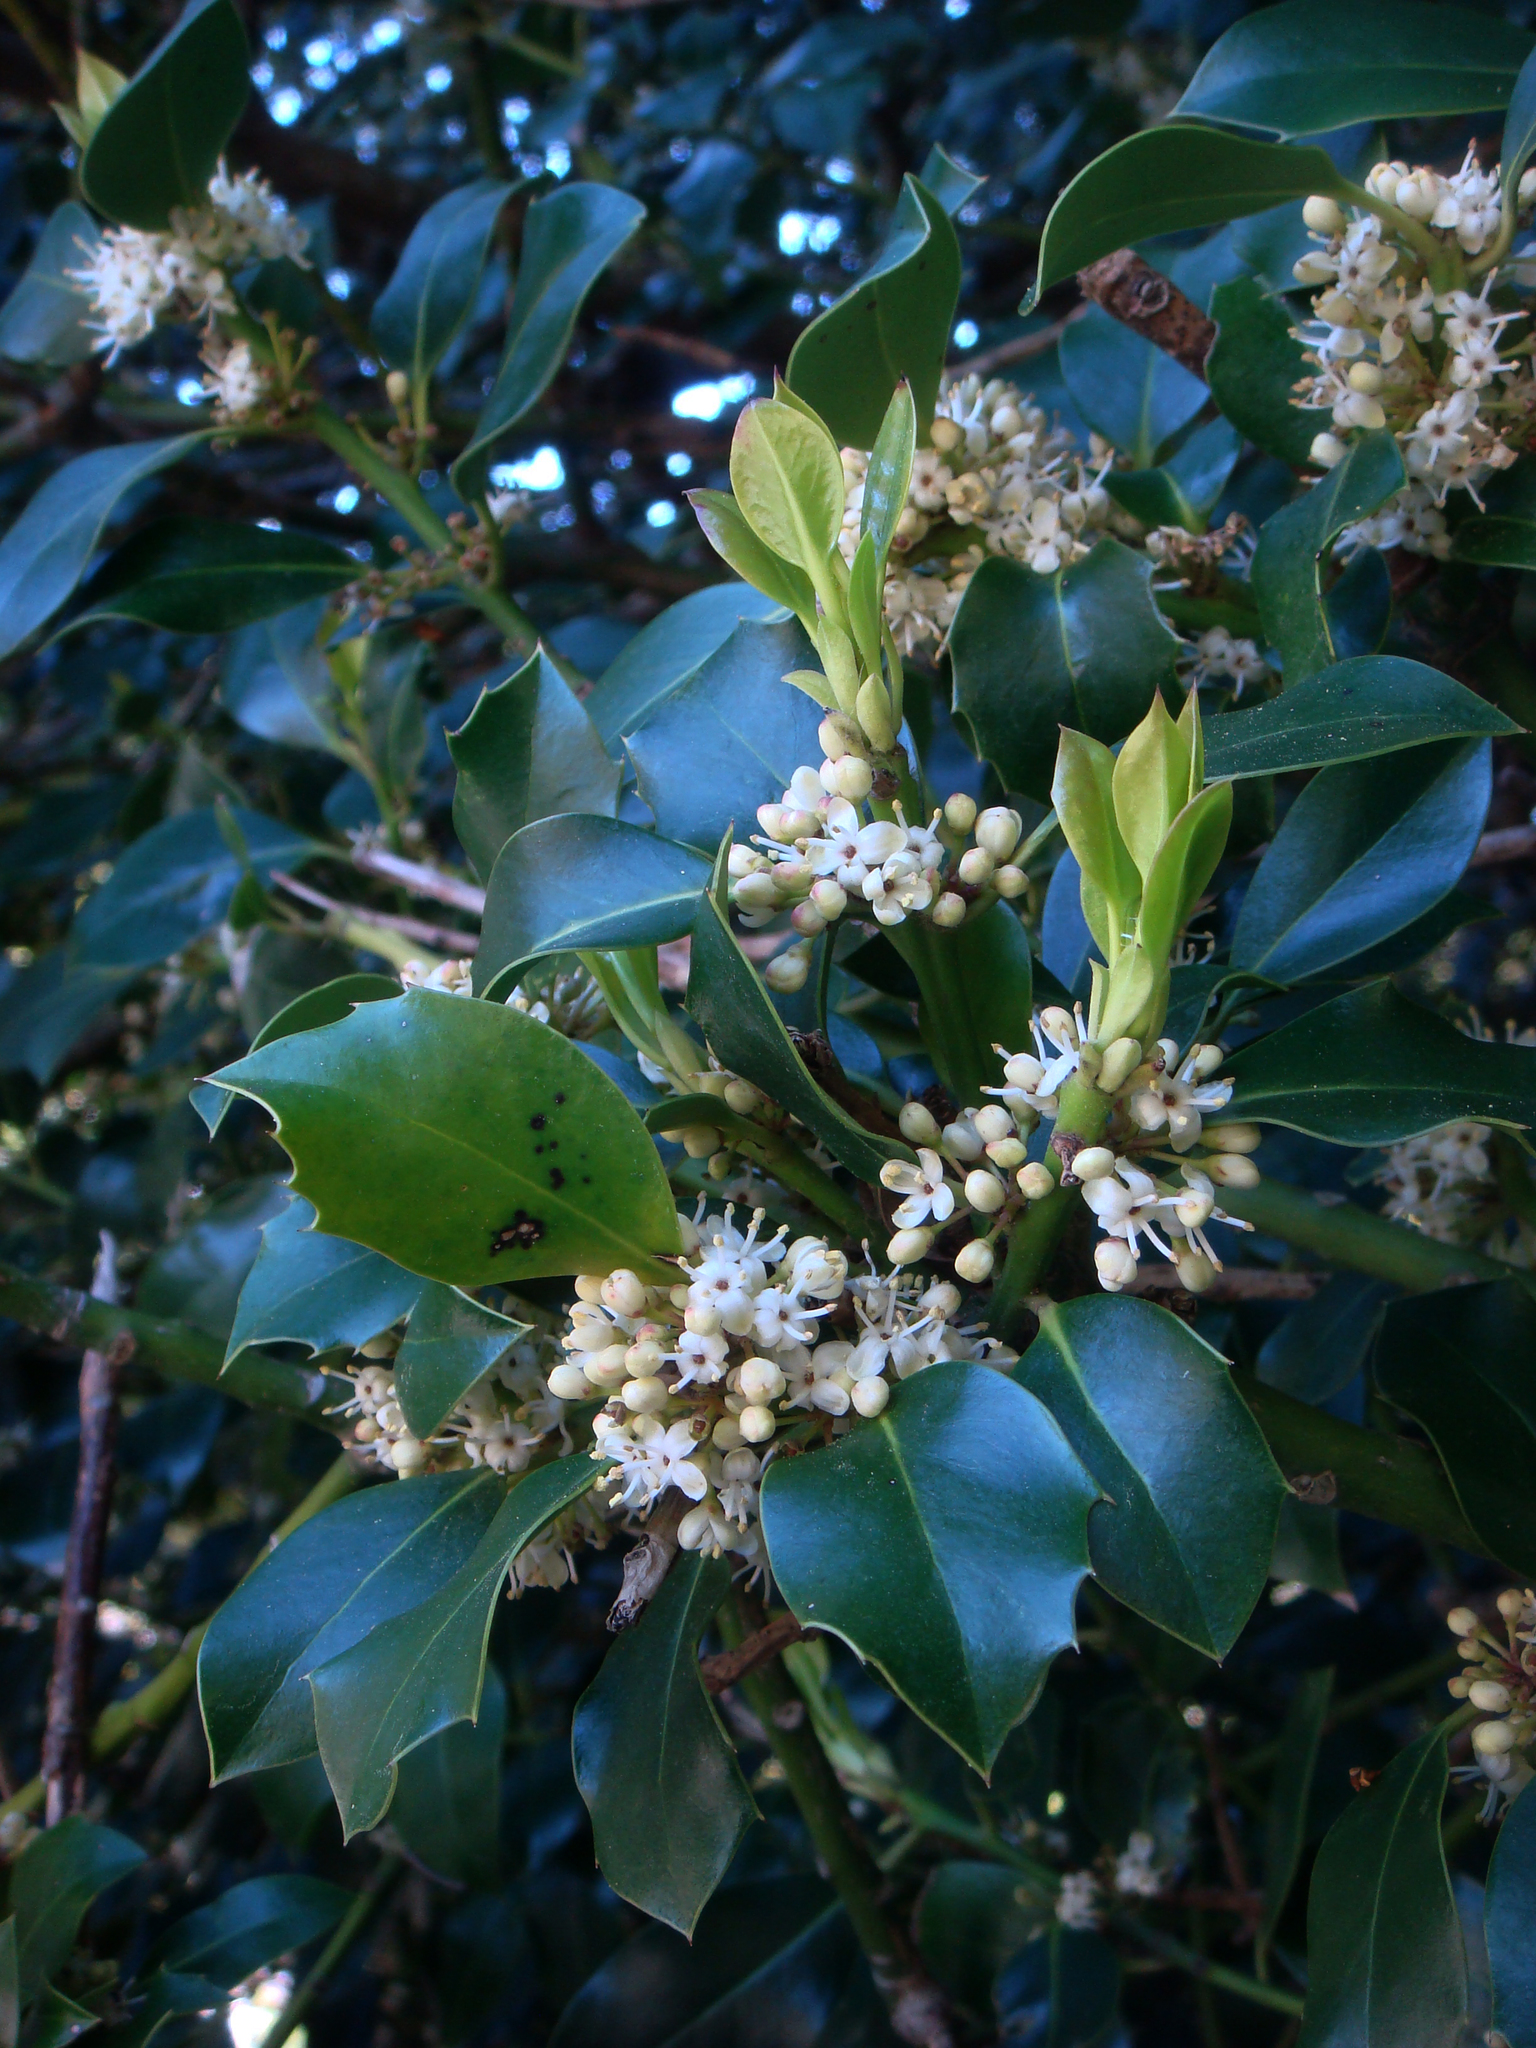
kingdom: Plantae
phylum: Tracheophyta
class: Magnoliopsida
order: Aquifoliales
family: Aquifoliaceae
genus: Ilex
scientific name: Ilex aquifolium
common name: English holly
